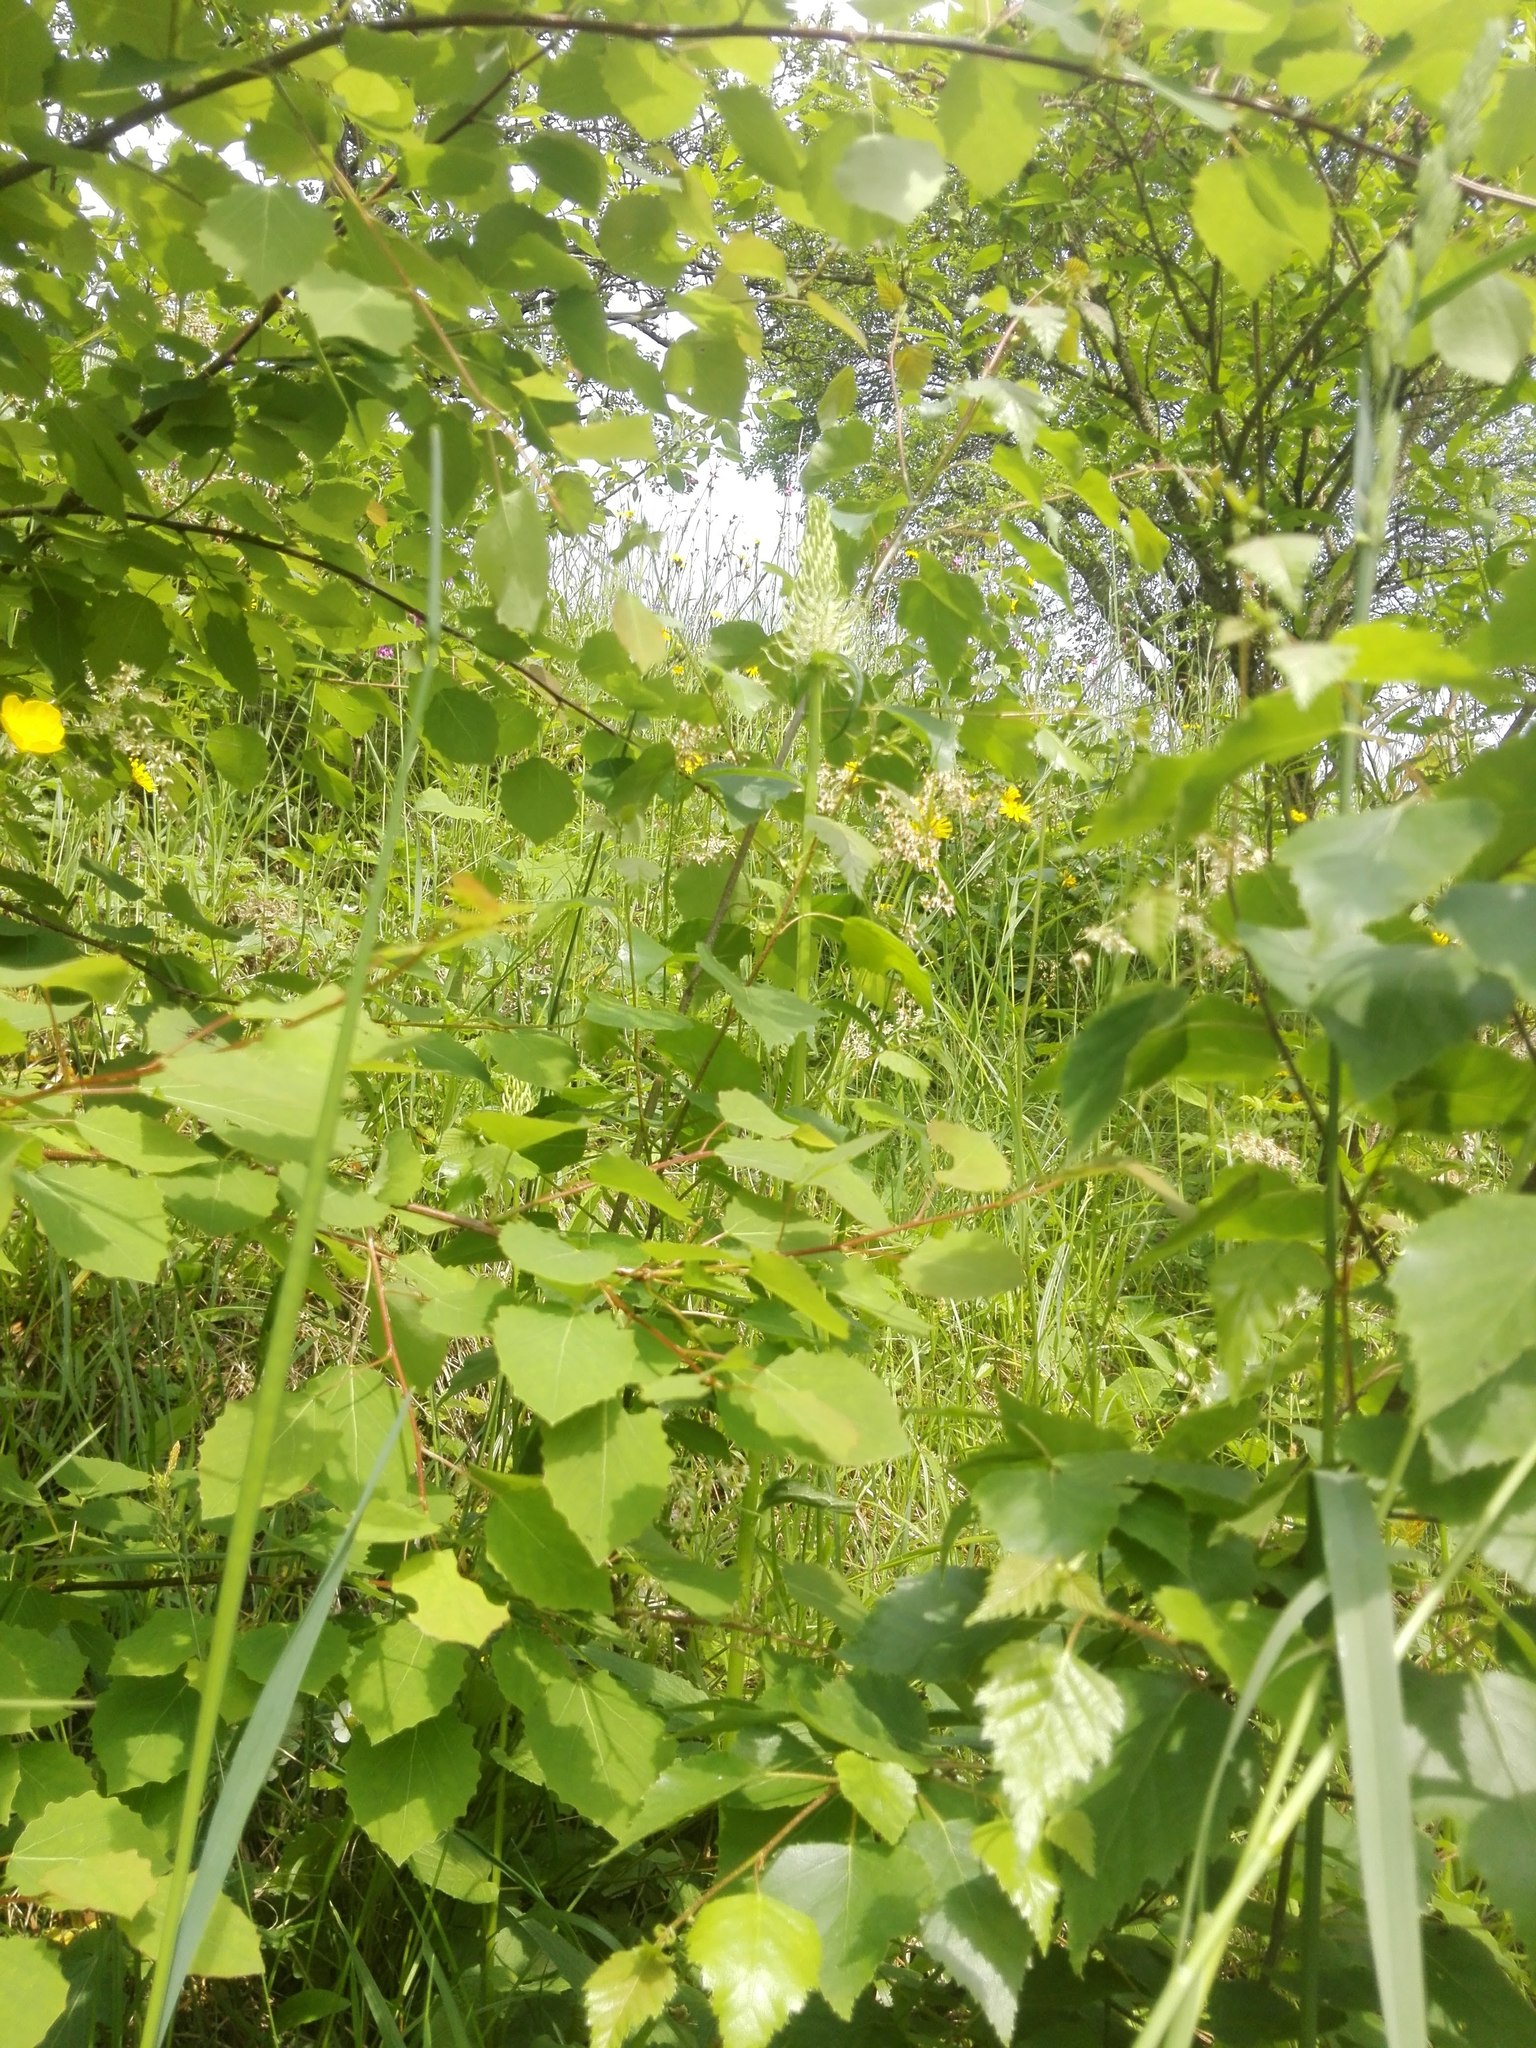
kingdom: Plantae
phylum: Tracheophyta
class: Magnoliopsida
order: Malpighiales
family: Salicaceae
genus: Populus
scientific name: Populus tremula
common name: European aspen
